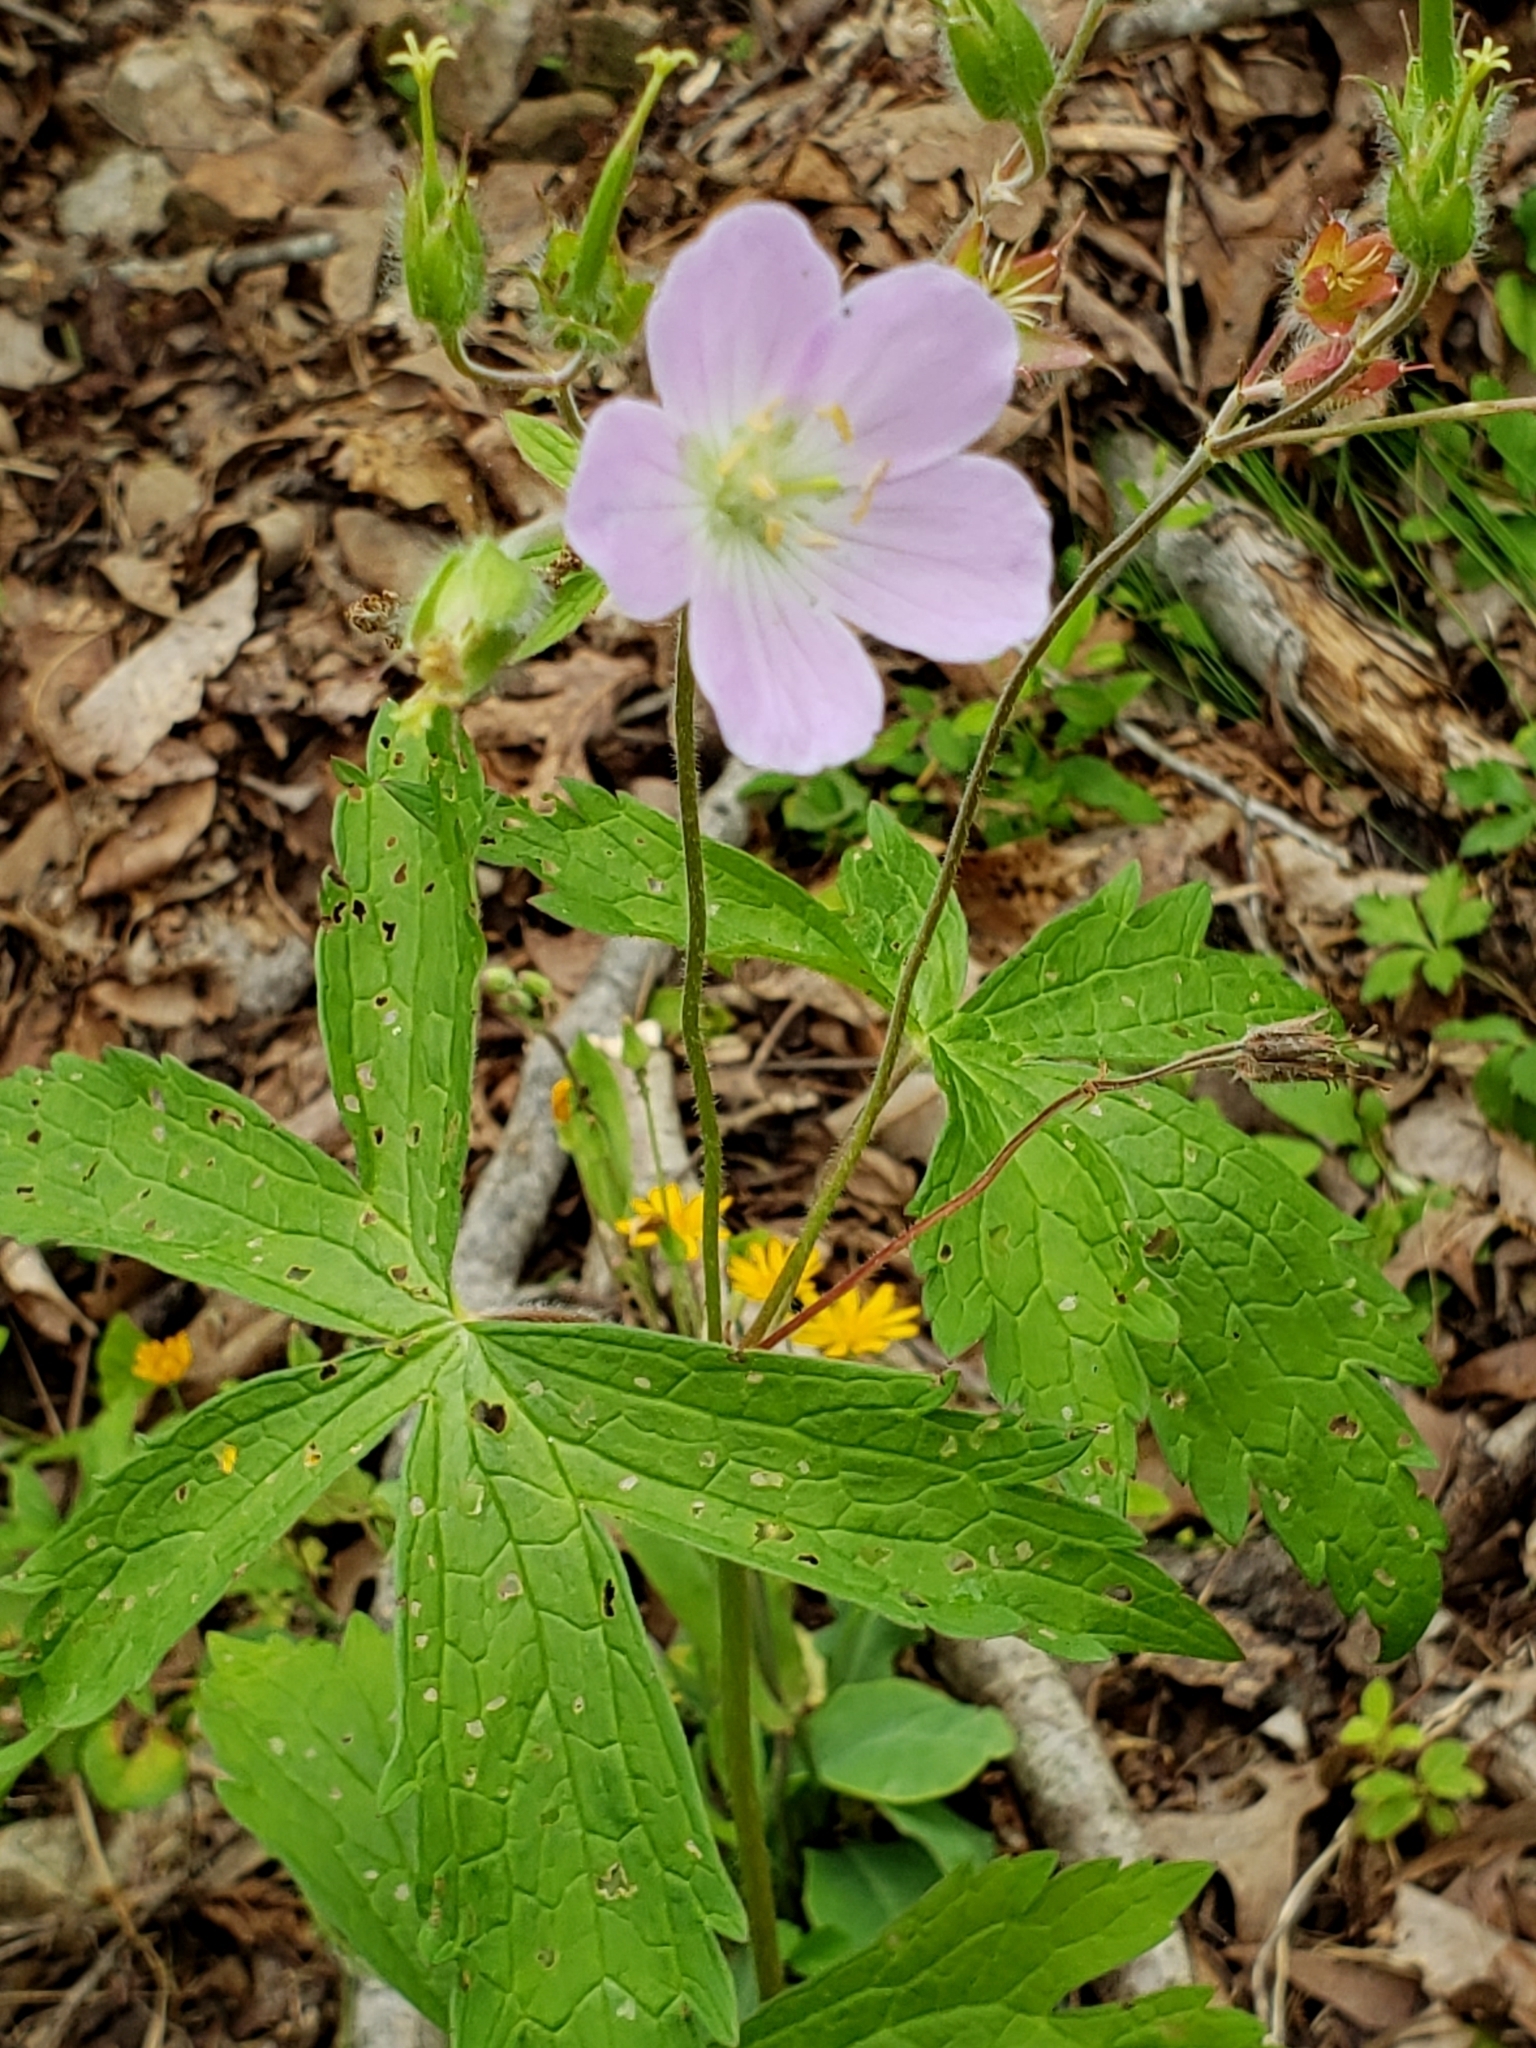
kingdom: Plantae
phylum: Tracheophyta
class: Magnoliopsida
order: Geraniales
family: Geraniaceae
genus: Geranium
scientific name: Geranium maculatum
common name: Spotted geranium
